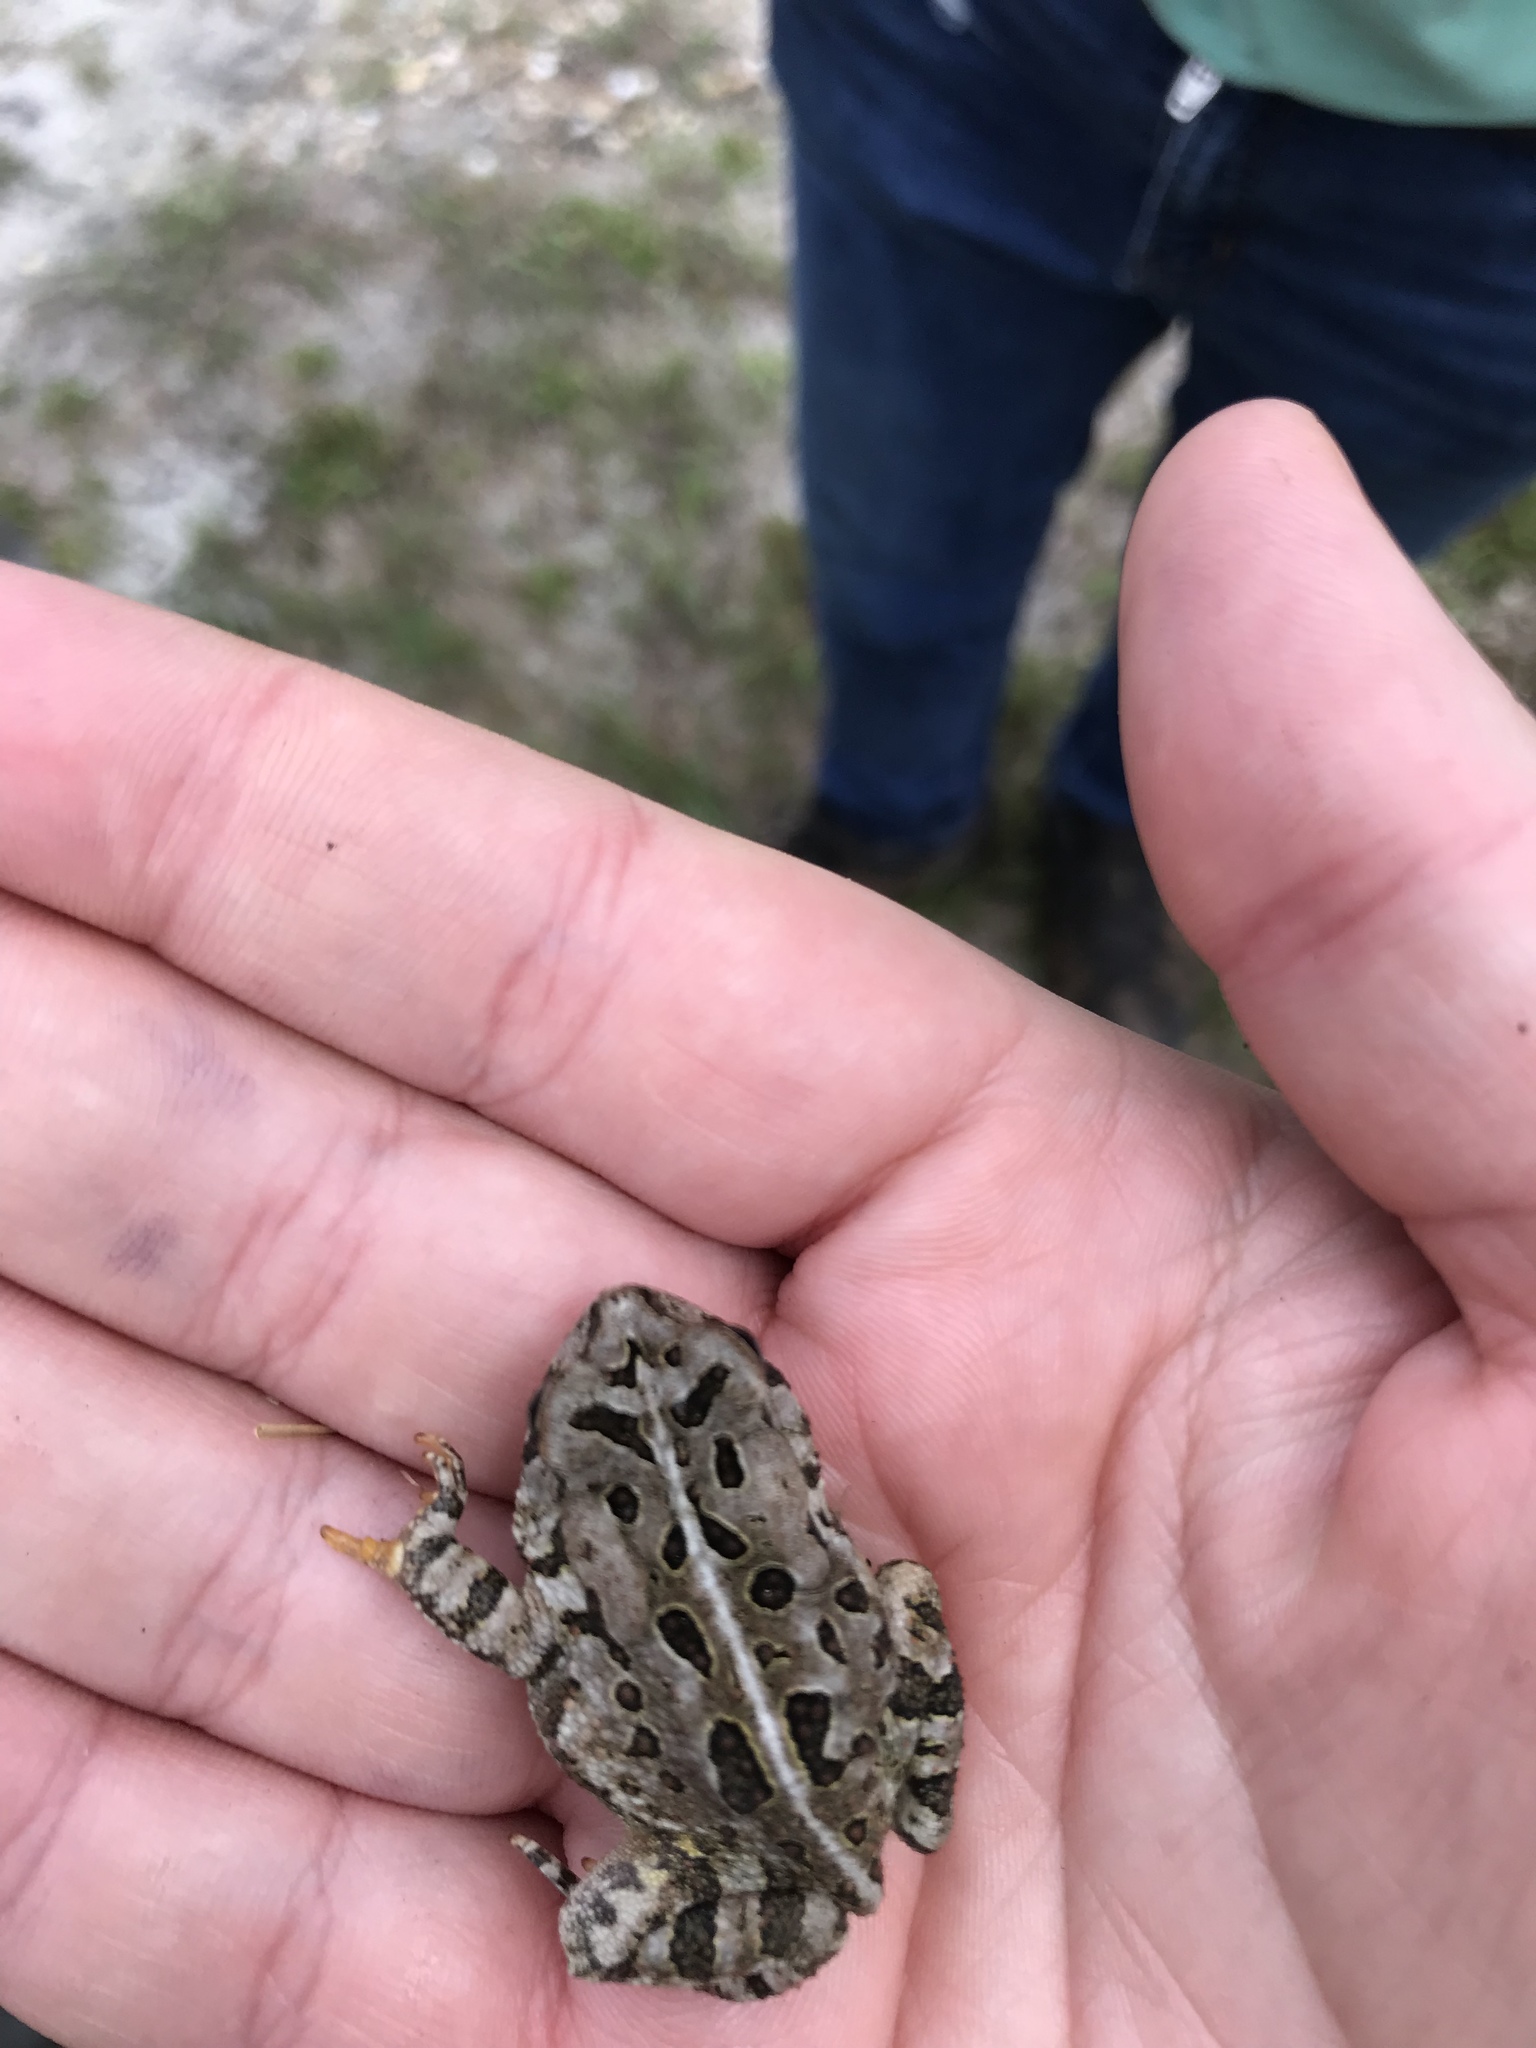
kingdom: Animalia
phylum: Chordata
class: Amphibia
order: Anura
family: Bufonidae
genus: Anaxyrus
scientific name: Anaxyrus fowleri
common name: Fowler's toad
